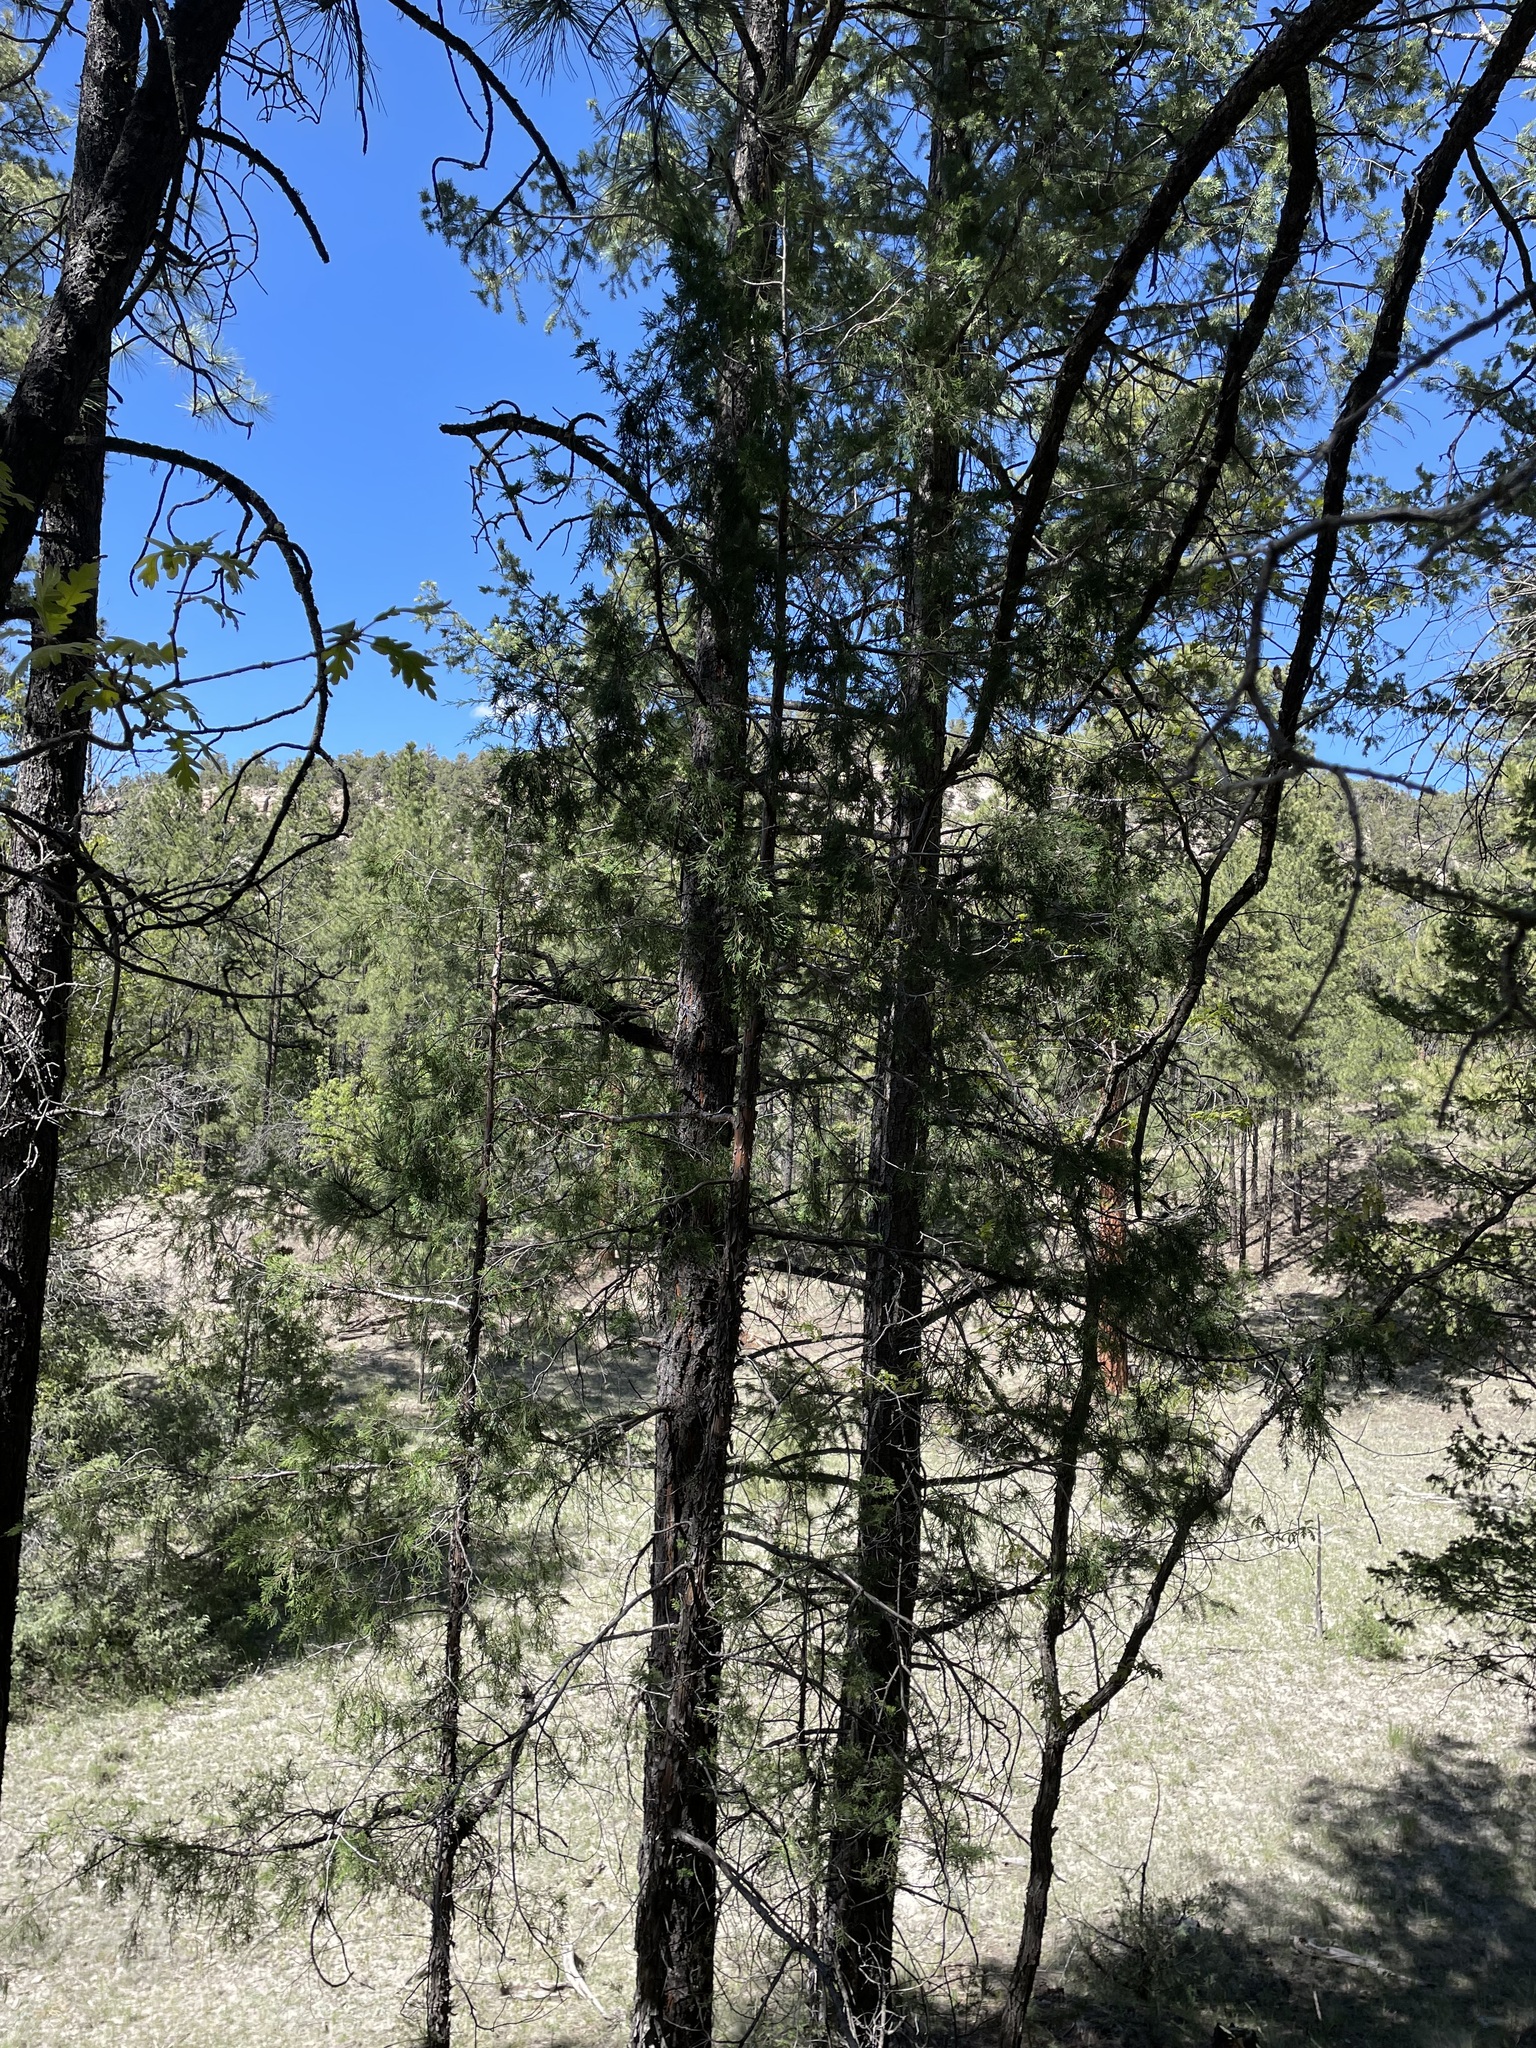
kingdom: Plantae
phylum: Tracheophyta
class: Pinopsida
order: Pinales
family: Cupressaceae
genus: Juniperus
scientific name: Juniperus scopulorum
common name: Rocky mountain juniper
